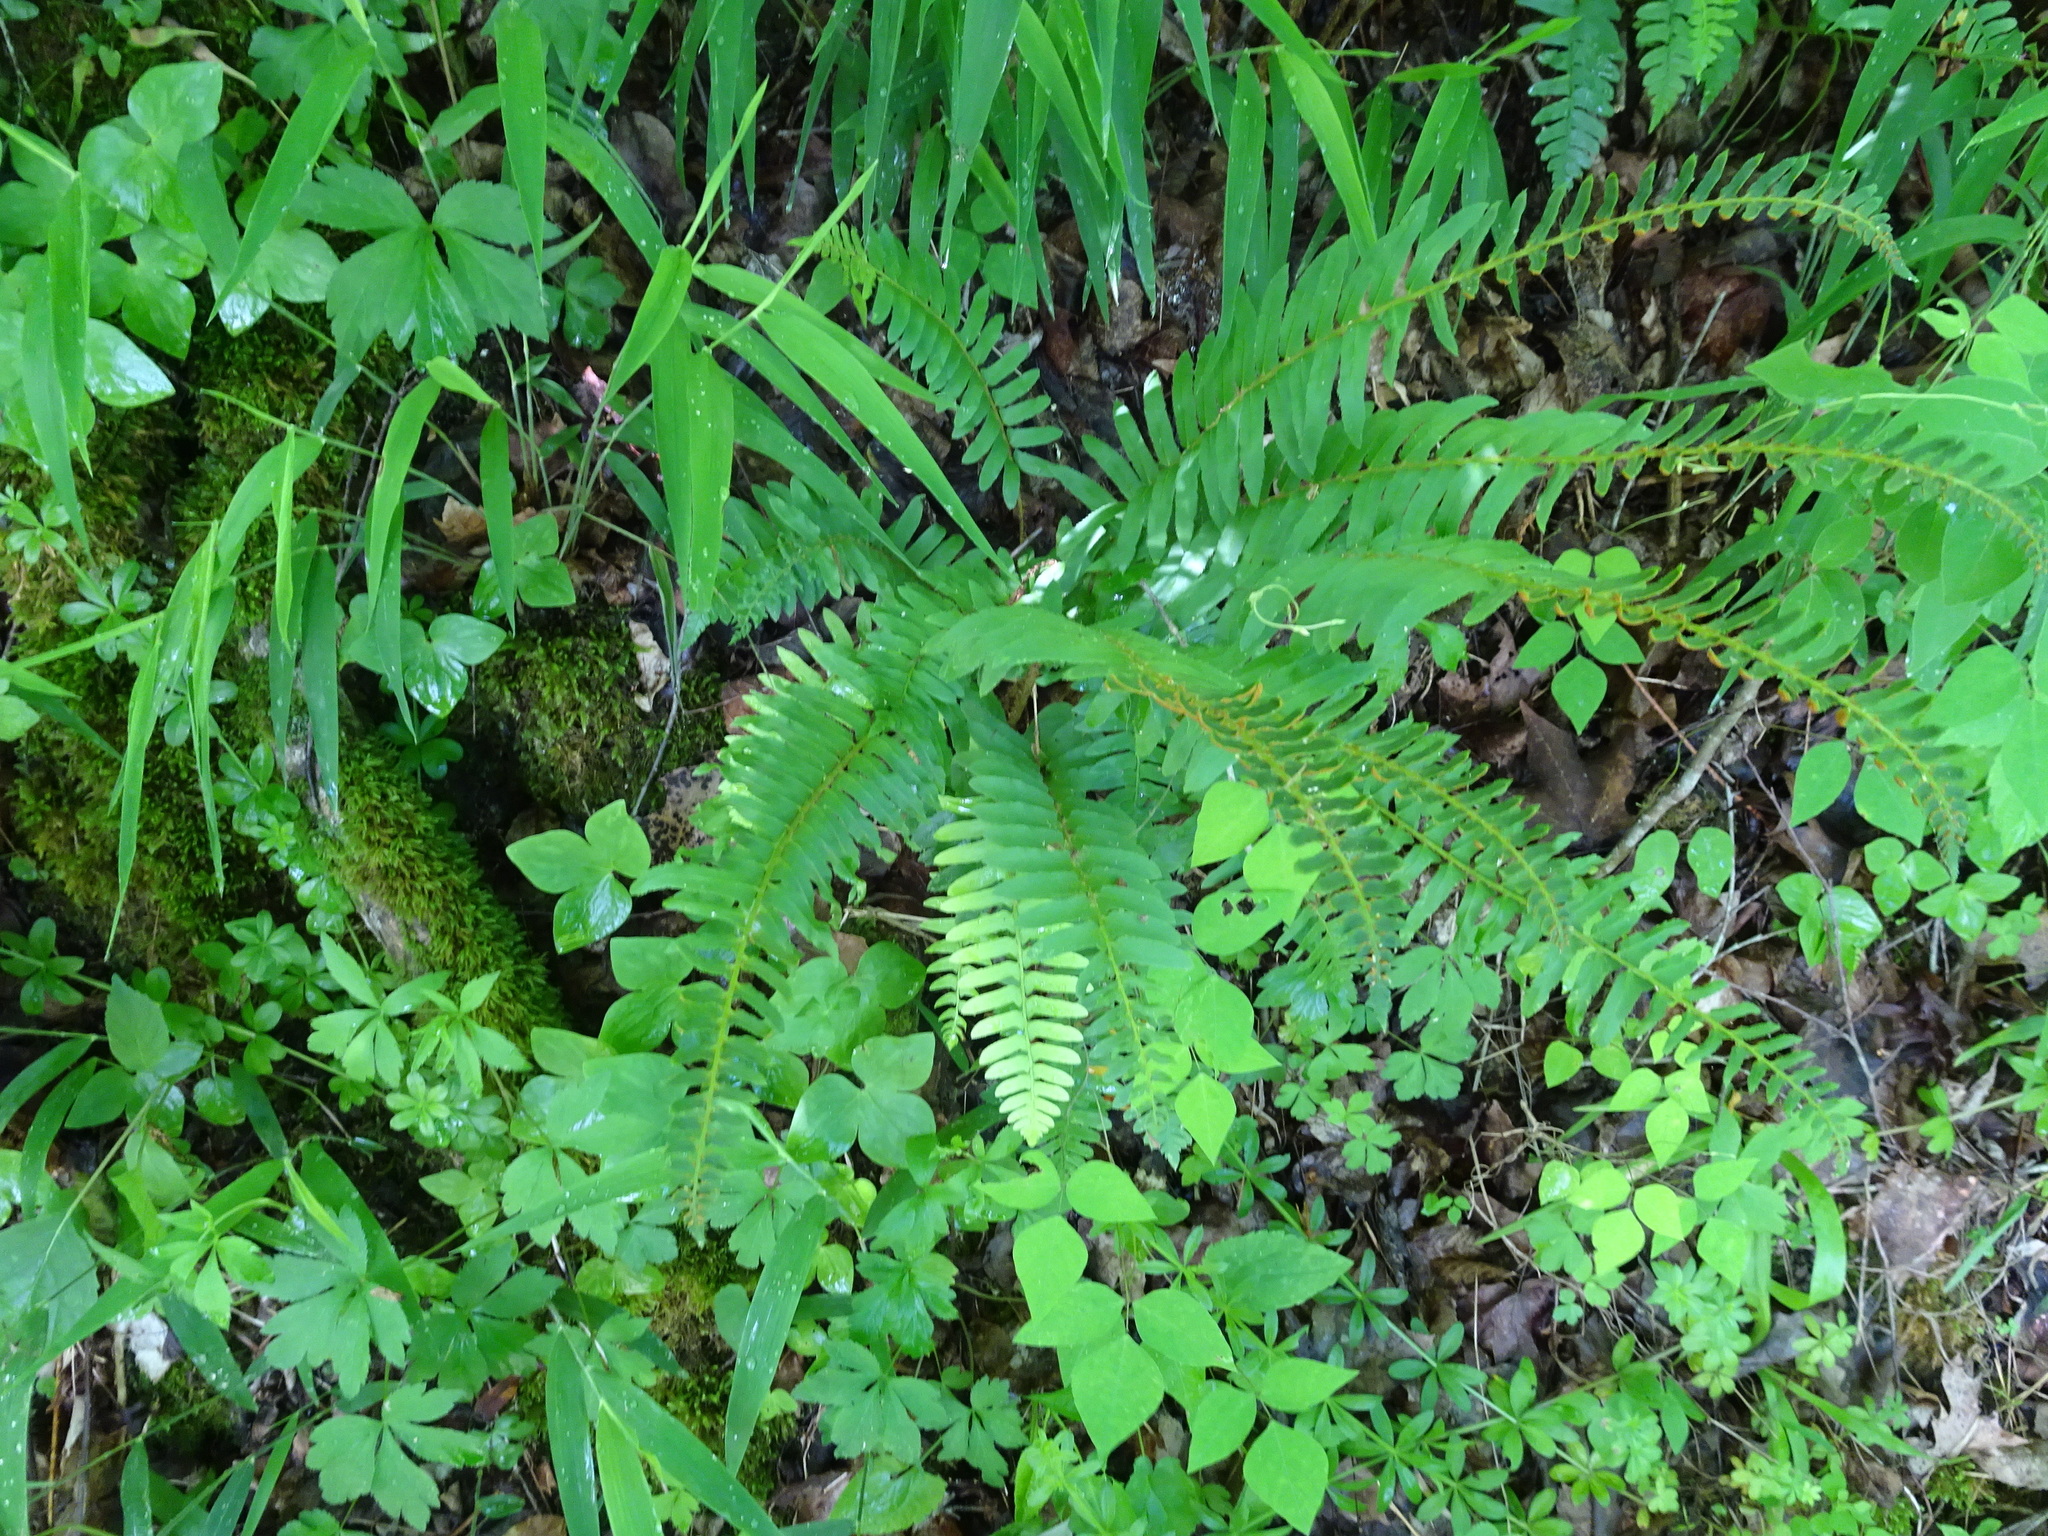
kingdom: Plantae
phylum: Tracheophyta
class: Polypodiopsida
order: Polypodiales
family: Dryopteridaceae
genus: Polystichum
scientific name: Polystichum acrostichoides
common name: Christmas fern
